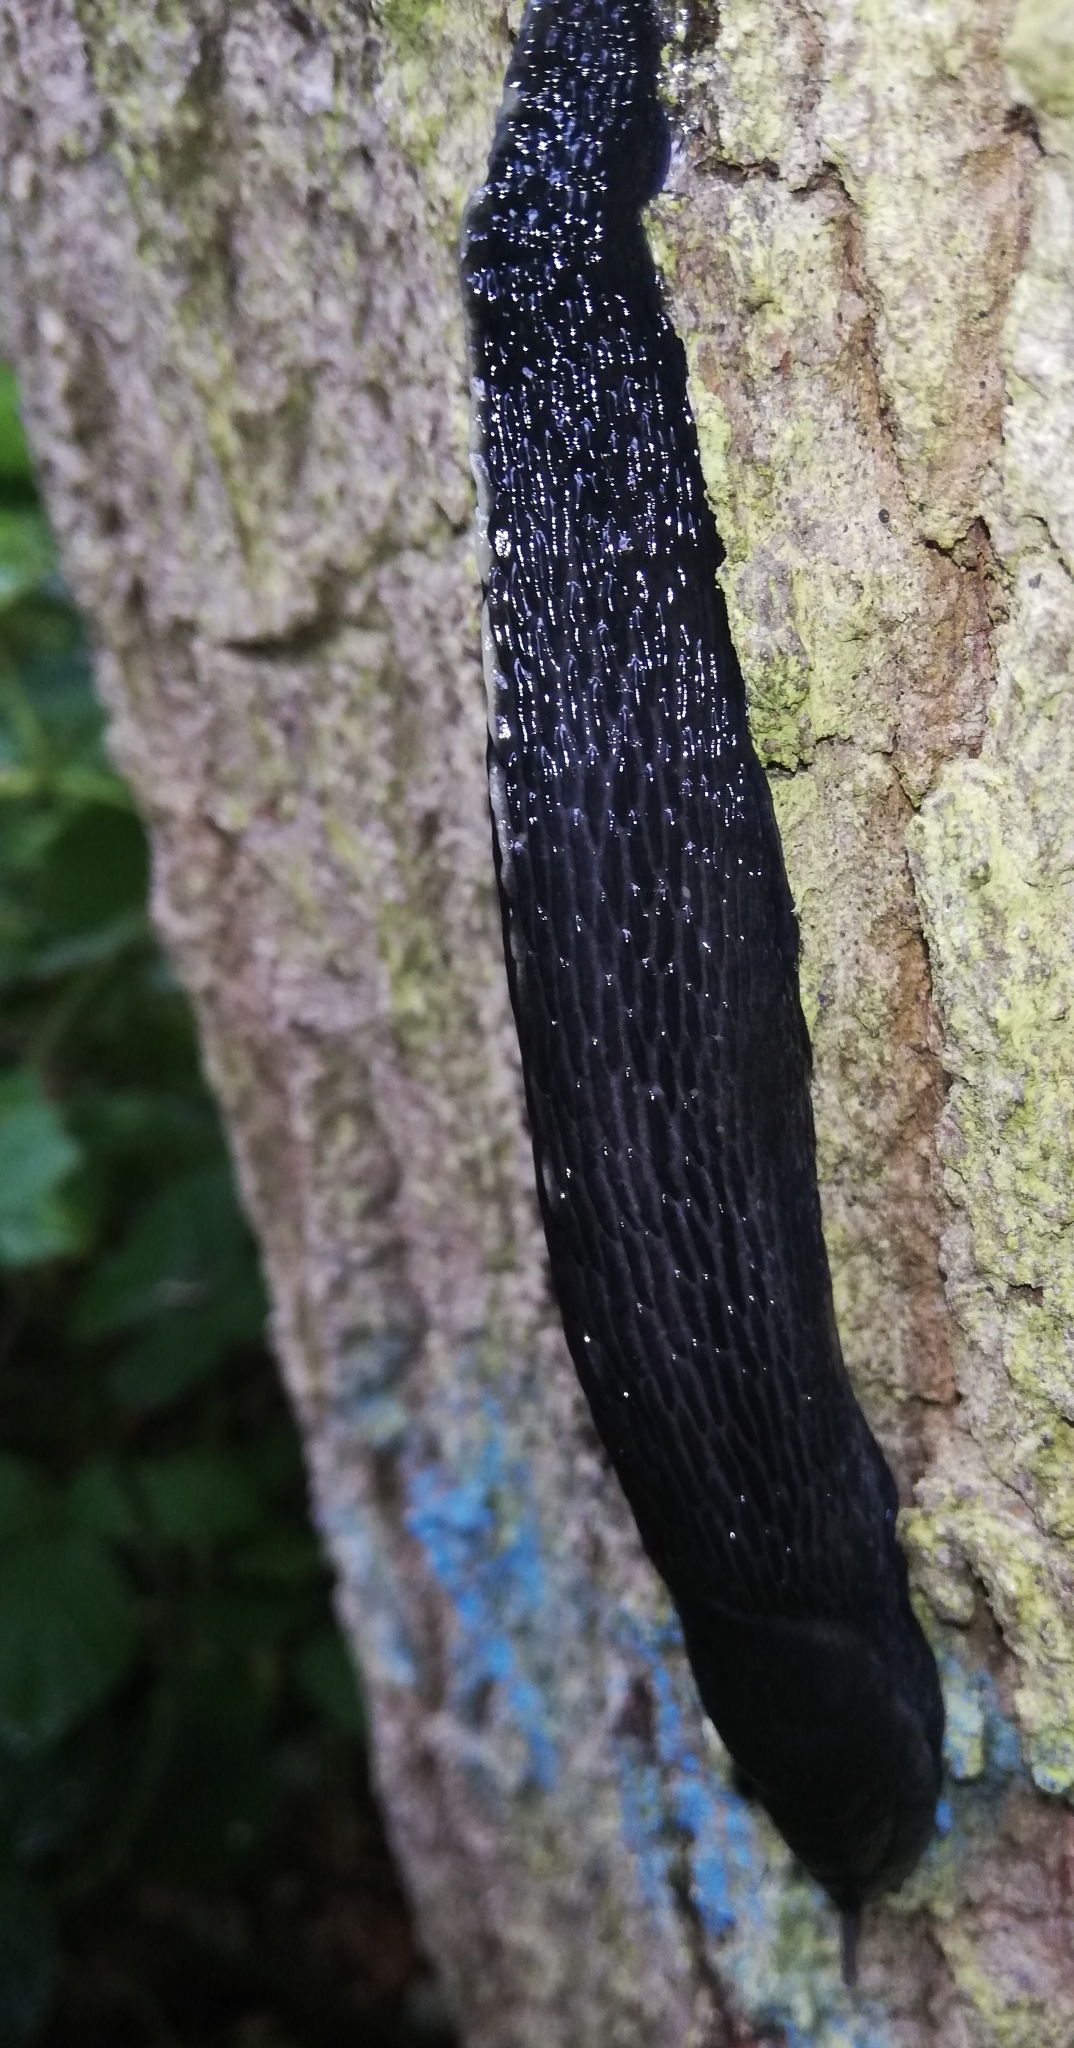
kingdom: Animalia
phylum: Mollusca
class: Gastropoda
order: Stylommatophora
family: Limacidae
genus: Limax
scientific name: Limax cinereoniger
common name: Ash-black slug
